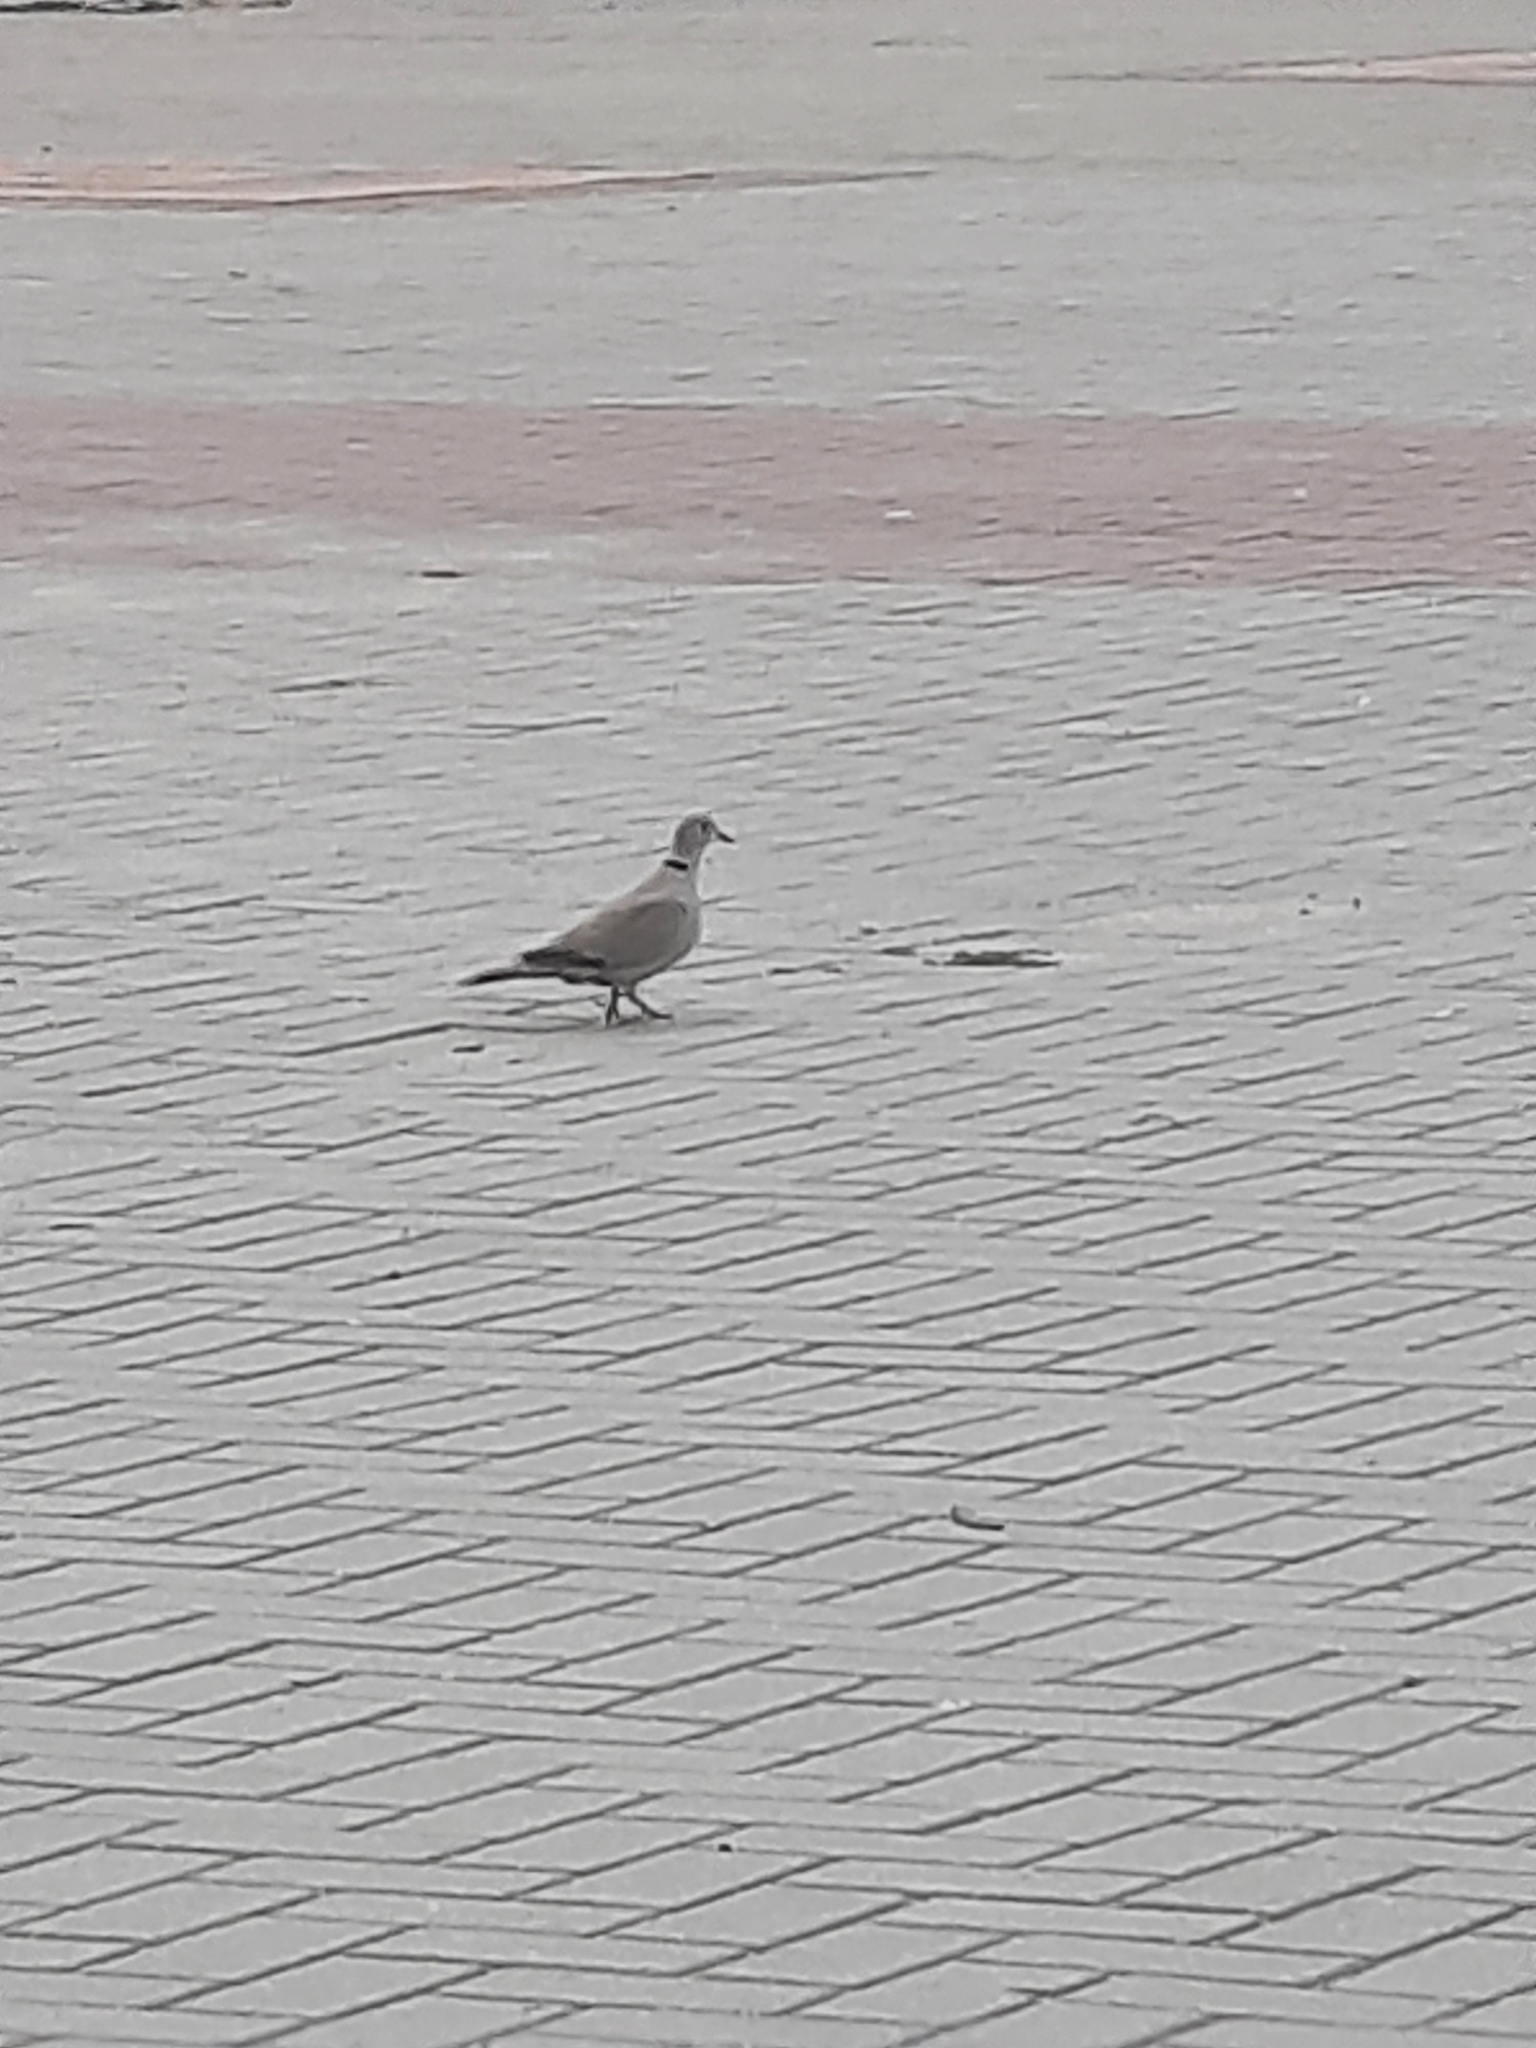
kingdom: Animalia
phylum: Chordata
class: Aves
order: Columbiformes
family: Columbidae
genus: Streptopelia
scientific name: Streptopelia decaocto
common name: Eurasian collared dove
